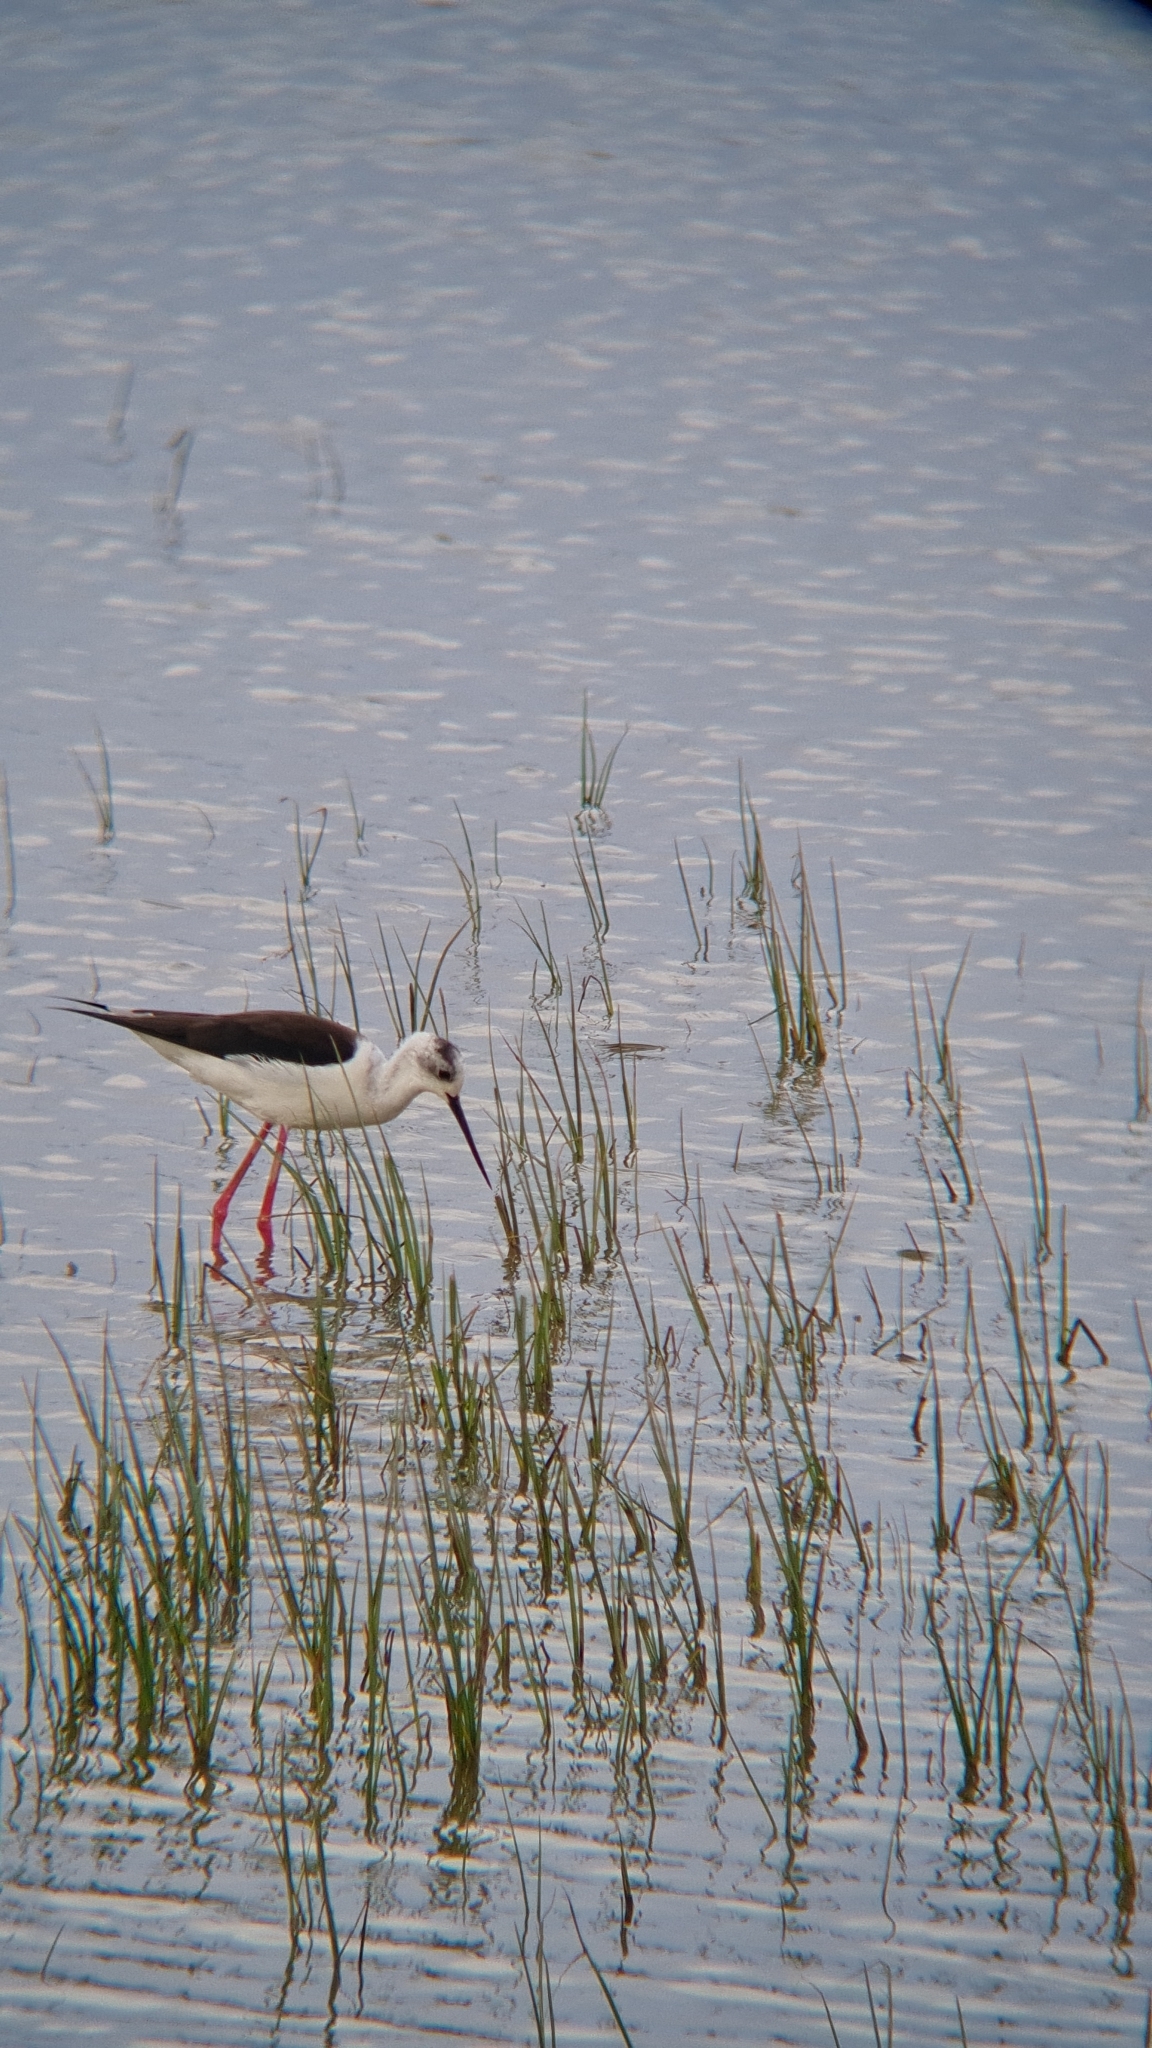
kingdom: Animalia
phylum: Chordata
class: Aves
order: Charadriiformes
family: Recurvirostridae
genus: Himantopus
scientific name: Himantopus himantopus
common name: Black-winged stilt
